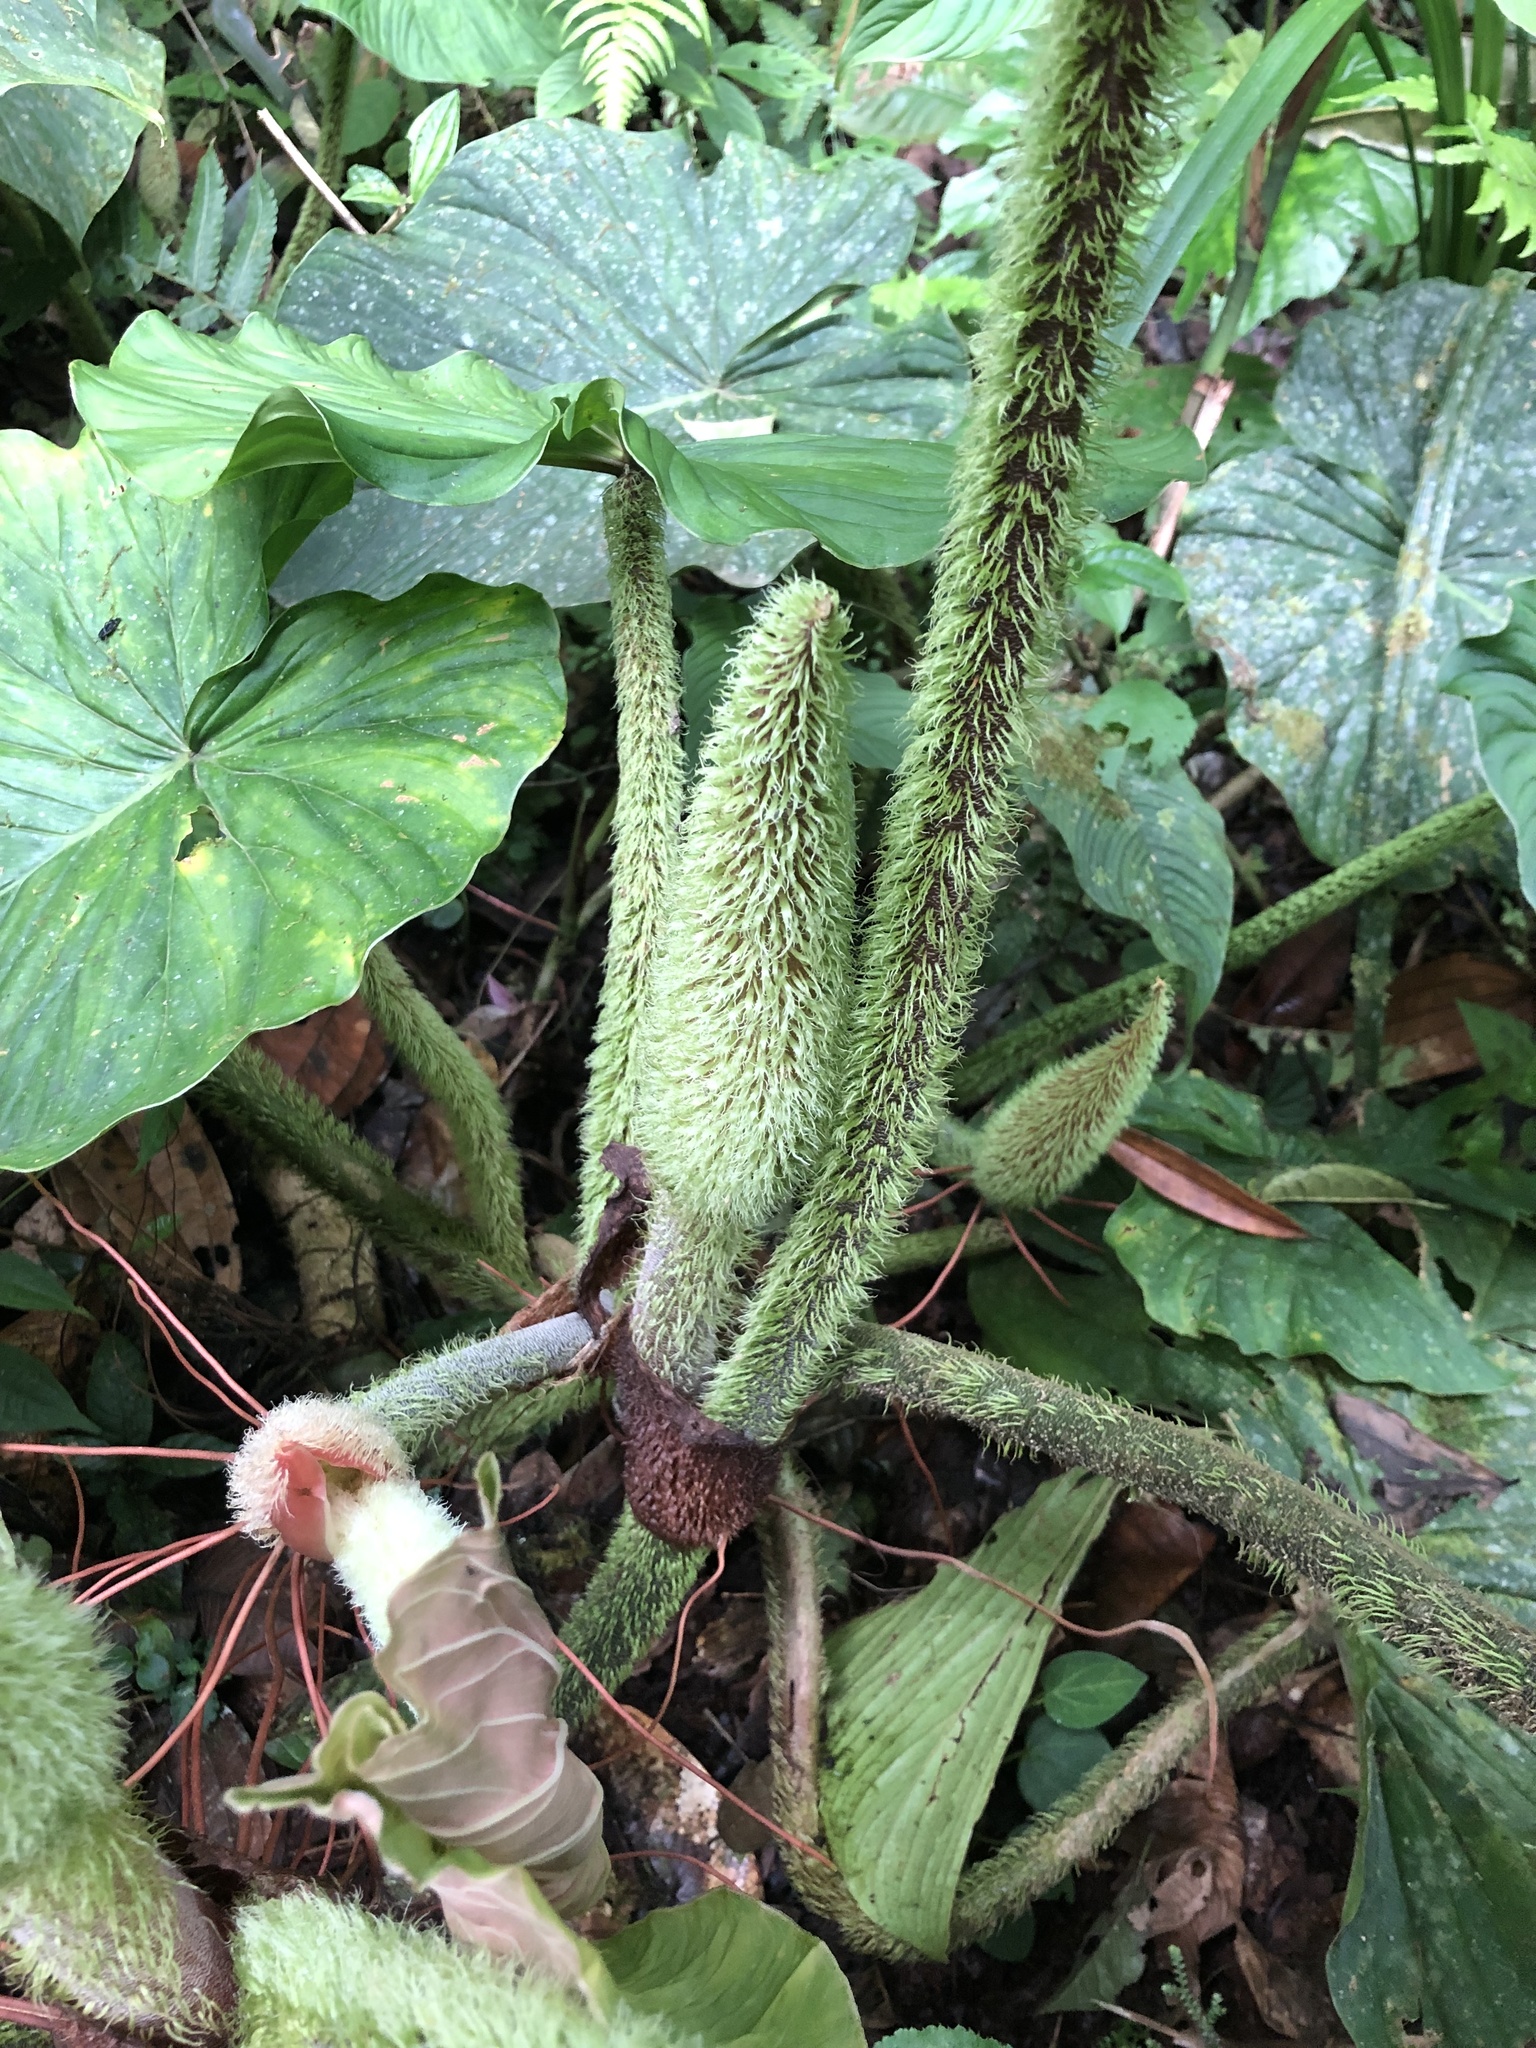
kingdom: Plantae
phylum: Tracheophyta
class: Liliopsida
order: Alismatales
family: Araceae
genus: Philodendron
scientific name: Philodendron fibrosum
